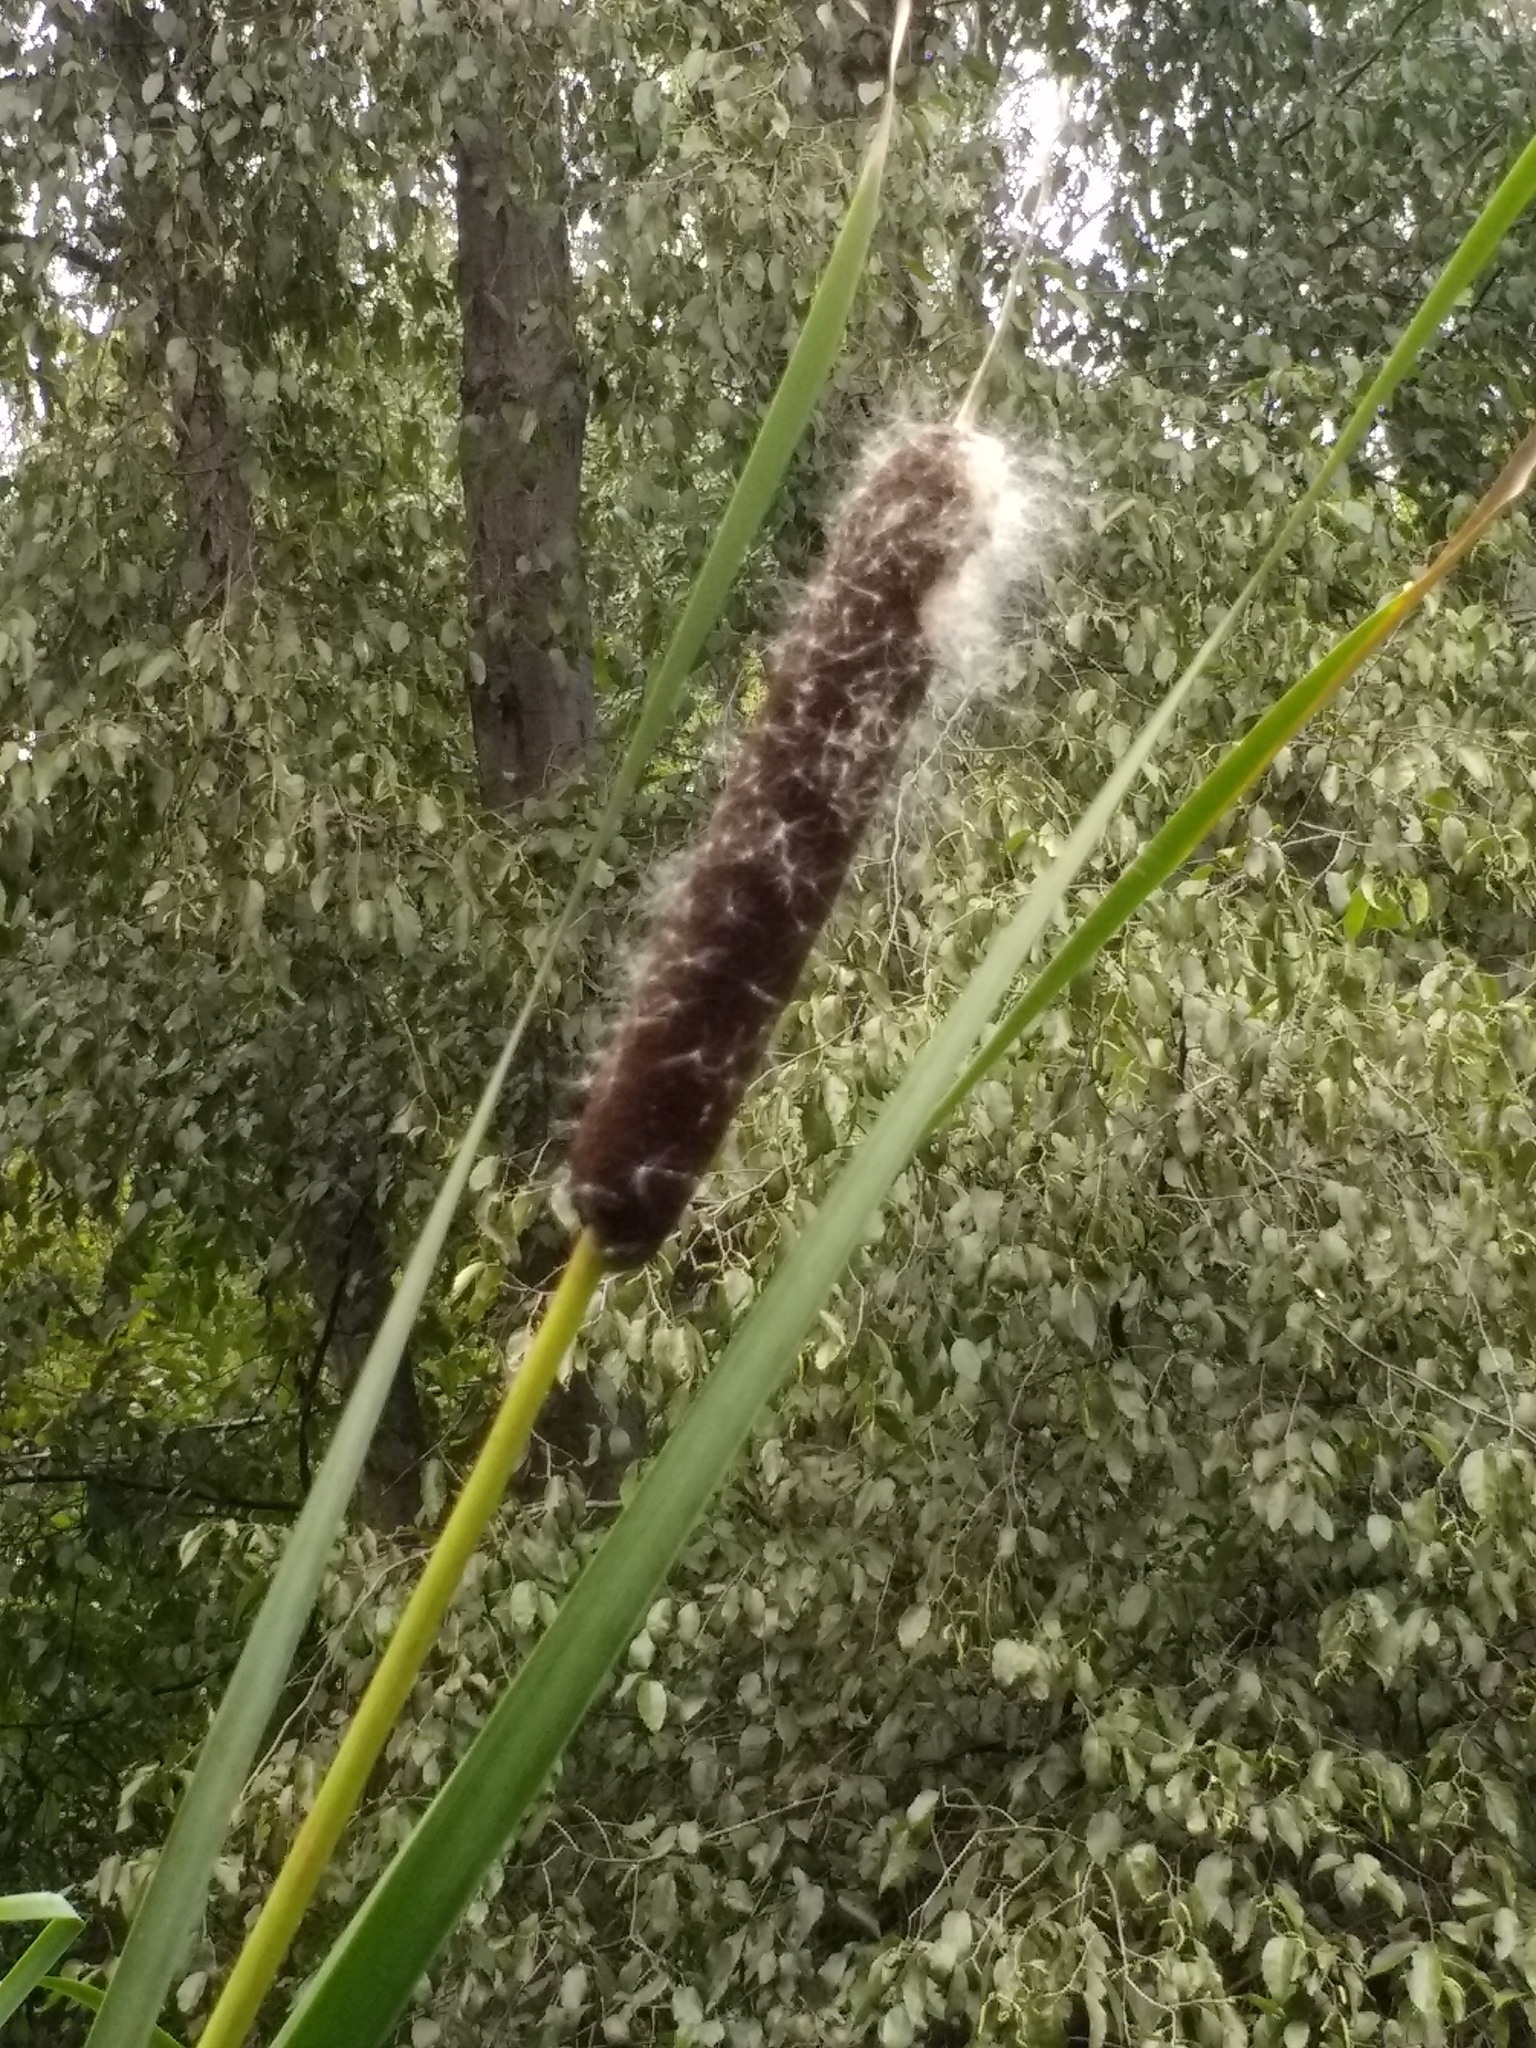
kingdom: Plantae
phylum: Tracheophyta
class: Liliopsida
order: Poales
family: Typhaceae
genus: Typha
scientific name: Typha latifolia
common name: Broadleaf cattail
